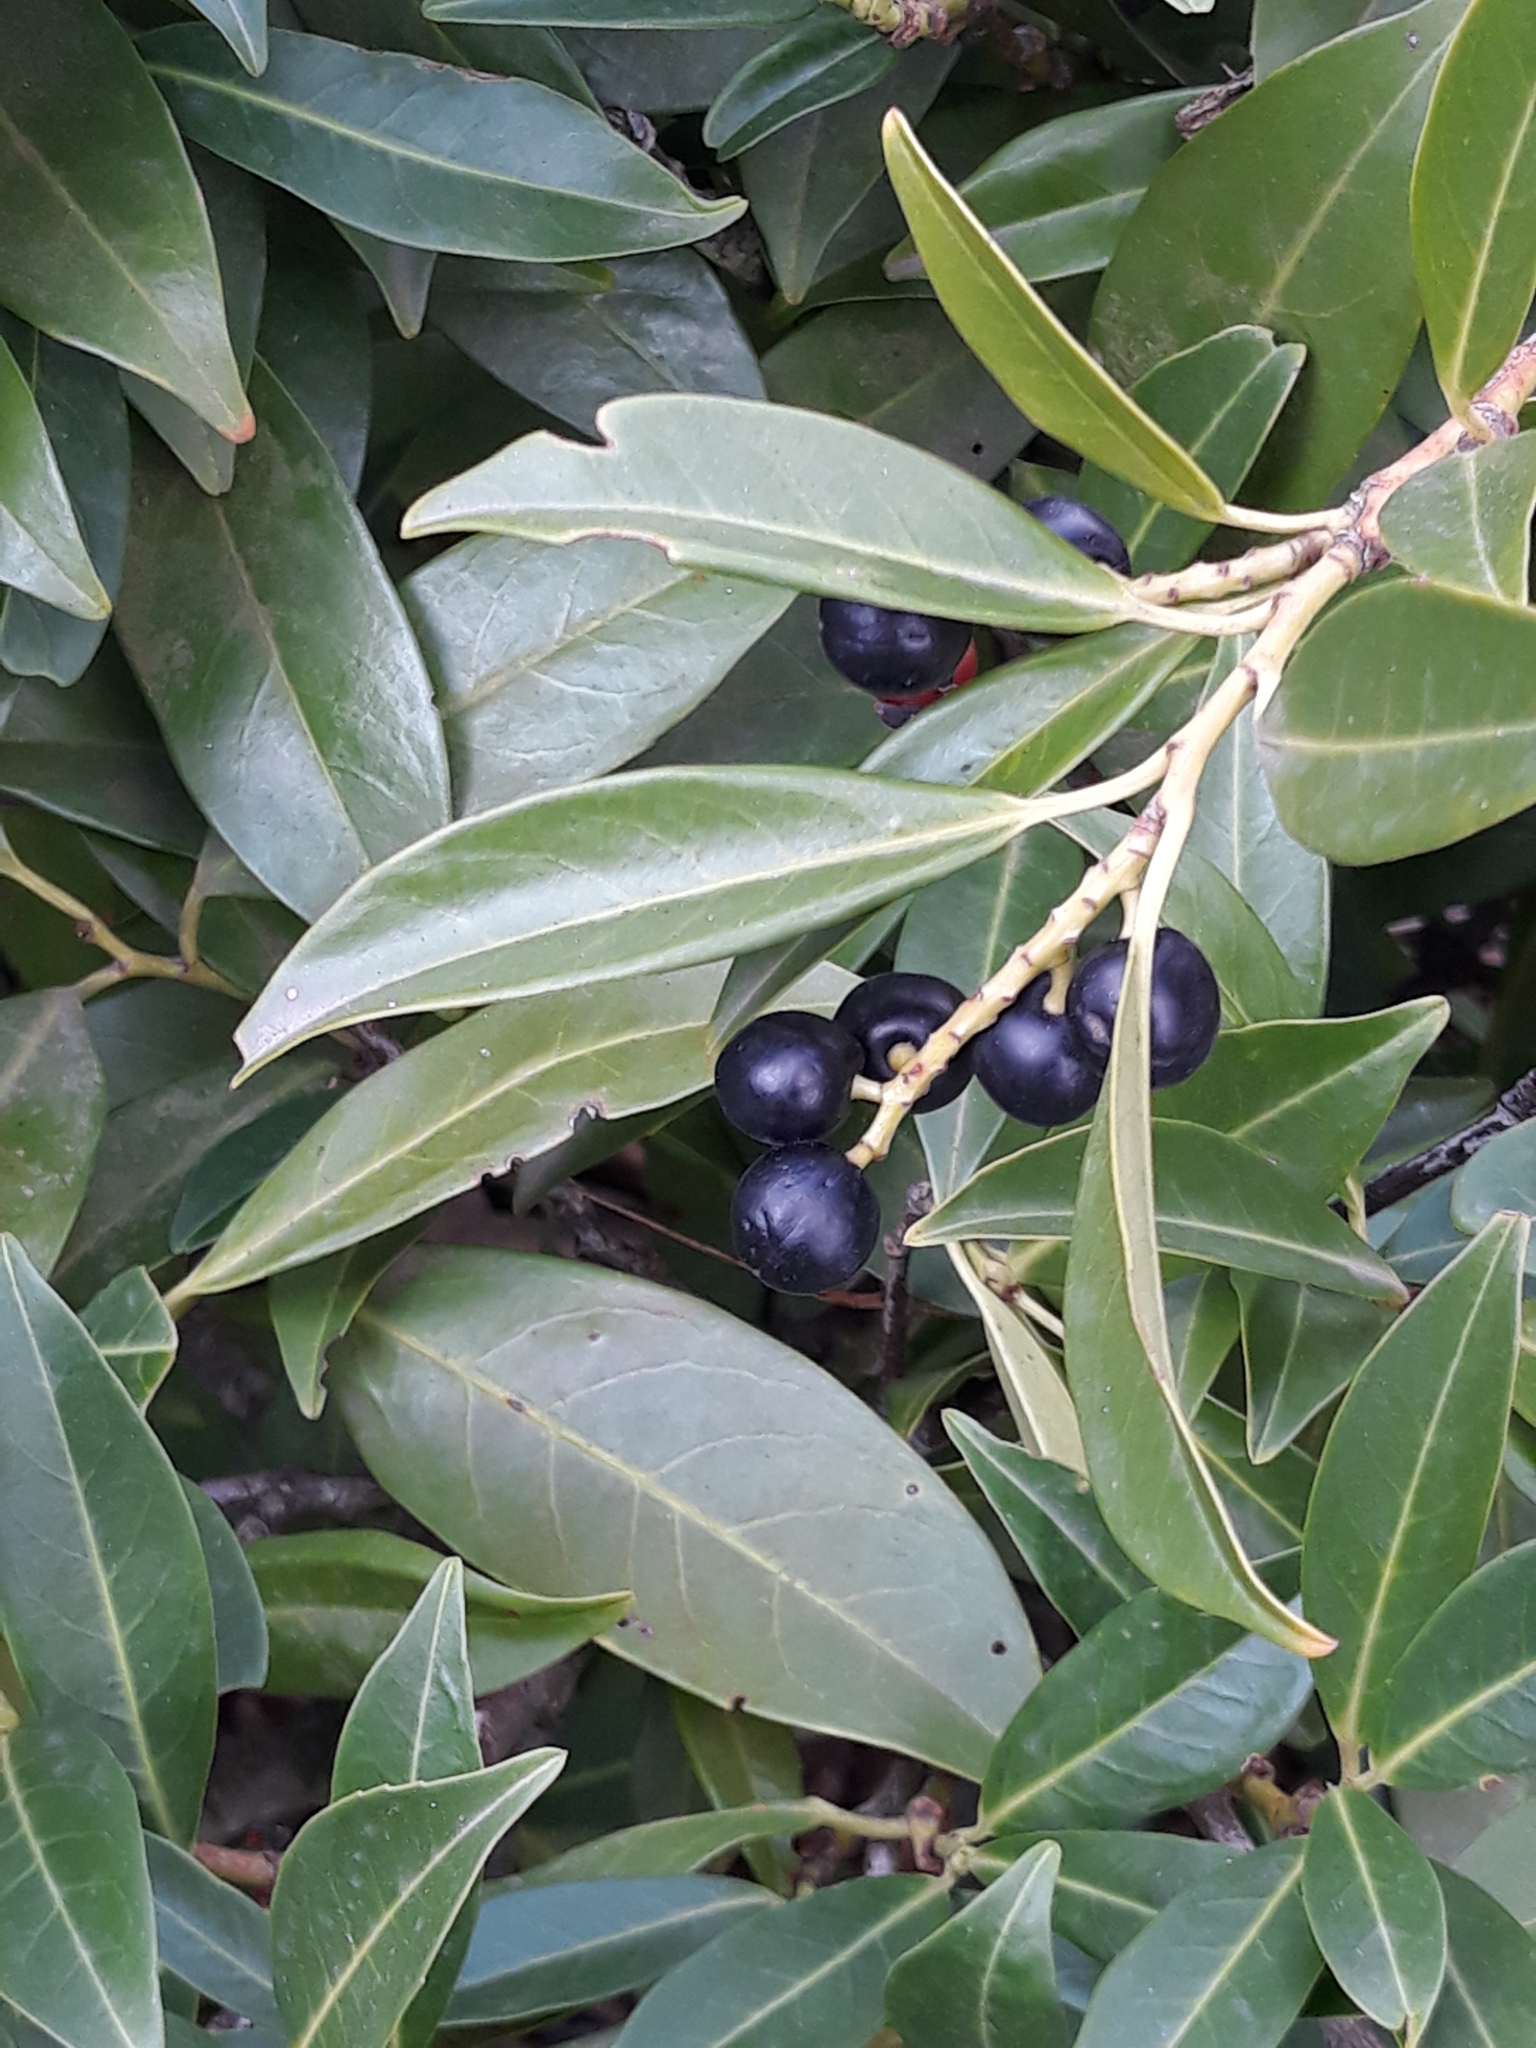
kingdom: Plantae
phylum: Tracheophyta
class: Magnoliopsida
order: Rosales
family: Rosaceae
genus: Prunus
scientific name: Prunus laurocerasus
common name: Cherry laurel
